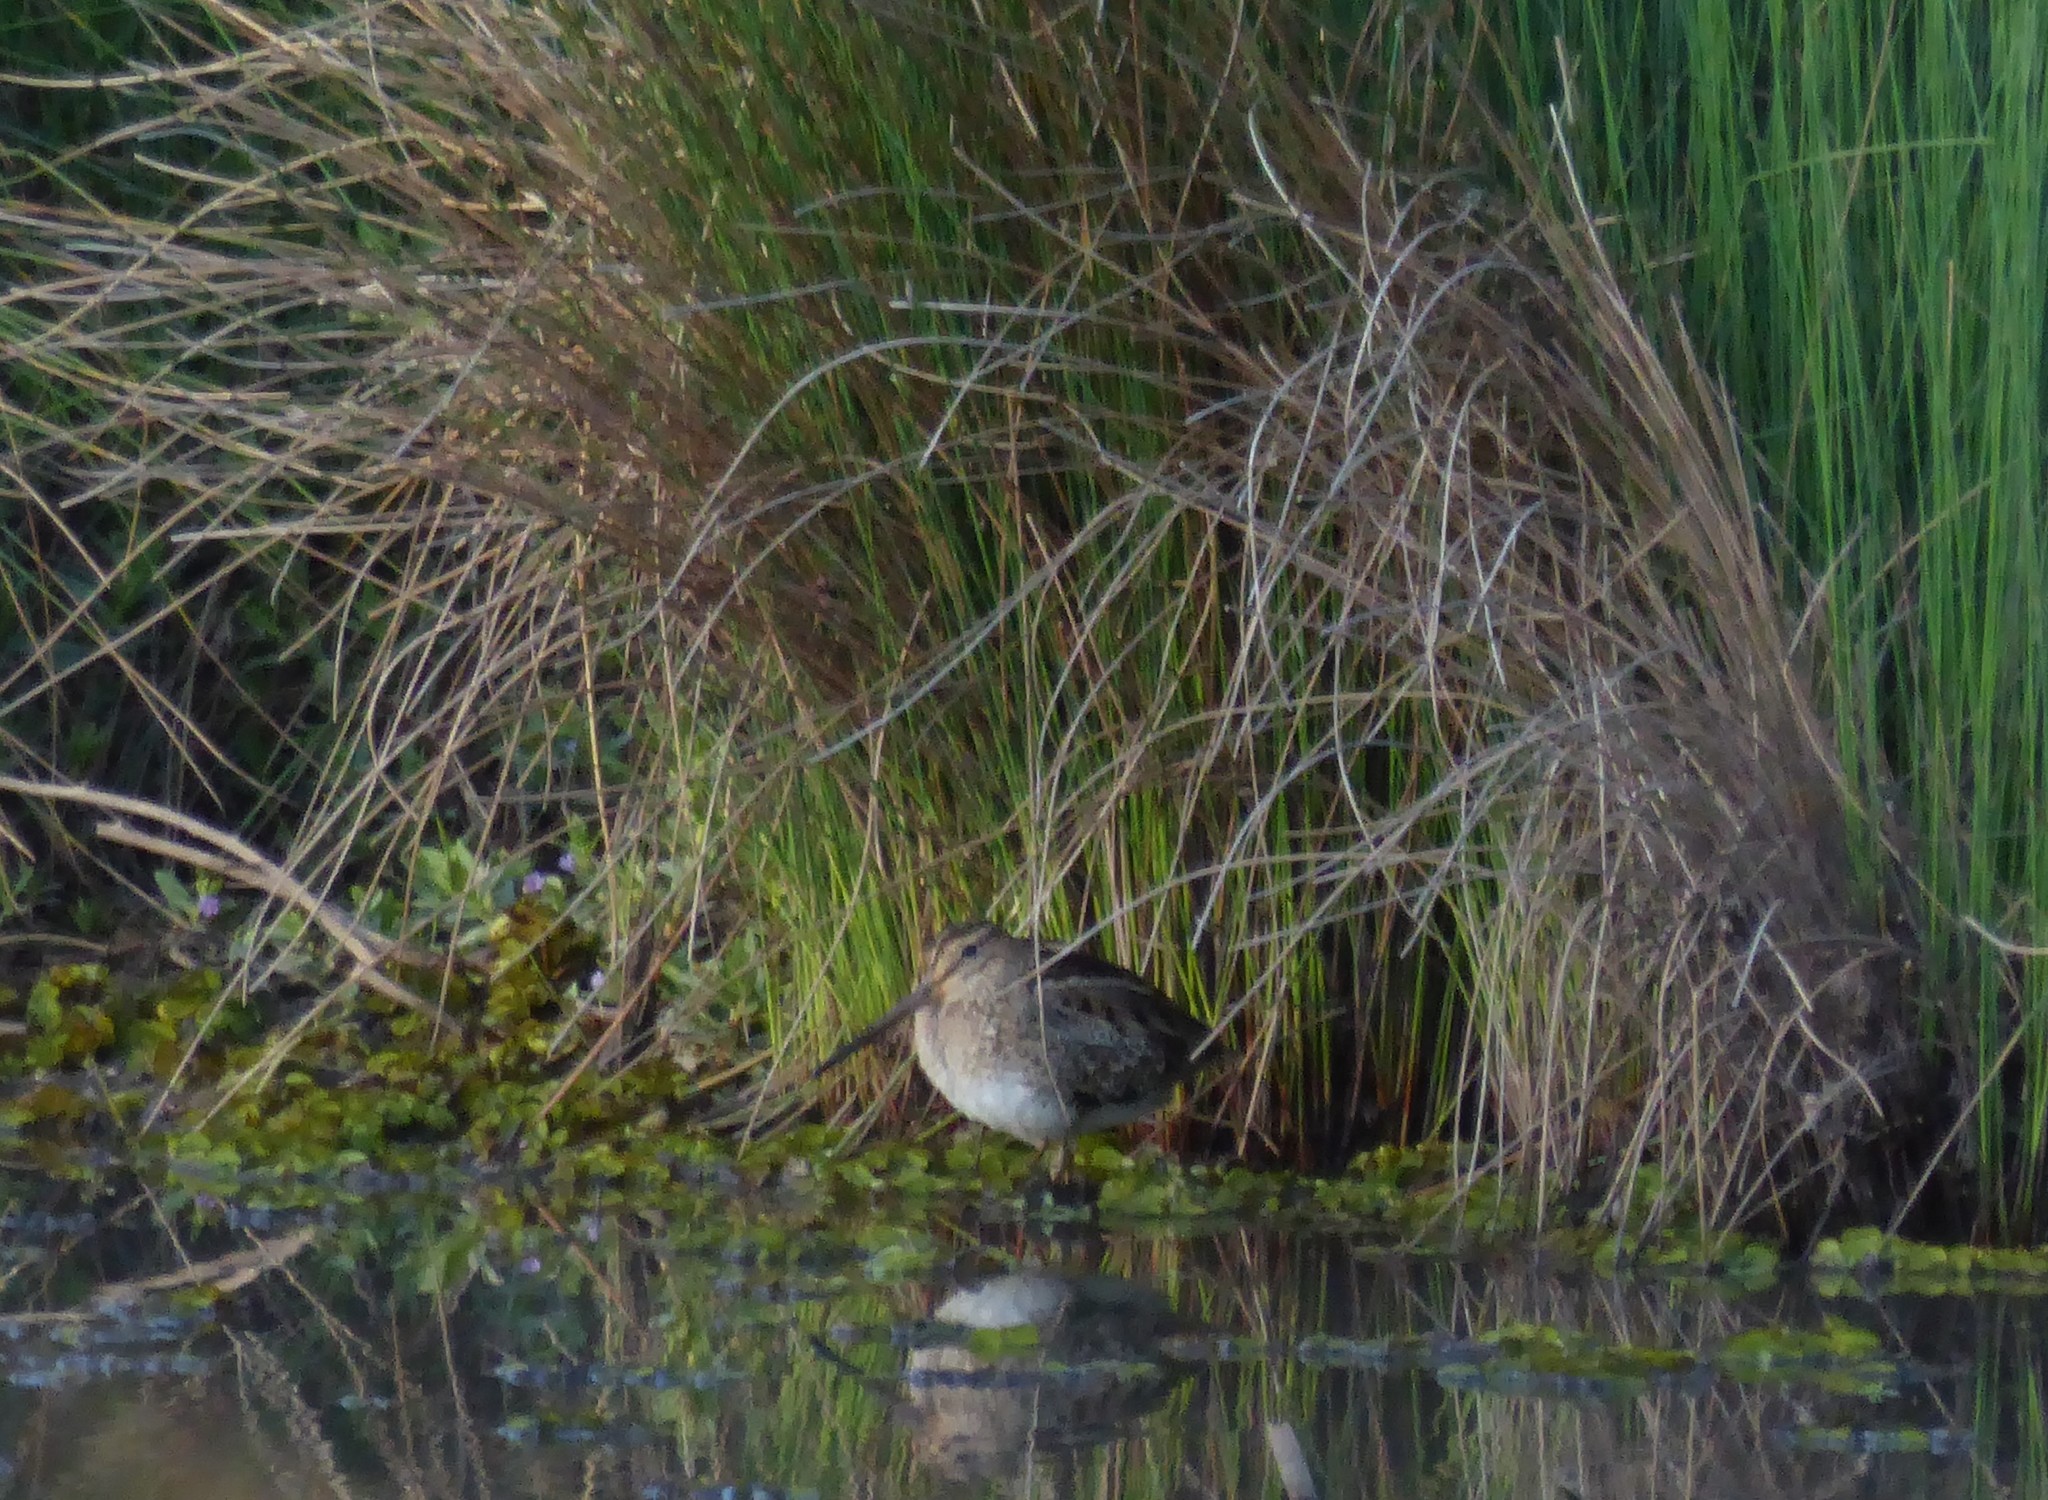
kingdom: Animalia
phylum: Chordata
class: Aves
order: Charadriiformes
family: Scolopacidae
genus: Gallinago
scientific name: Gallinago hardwickii
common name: Latham's snipe
